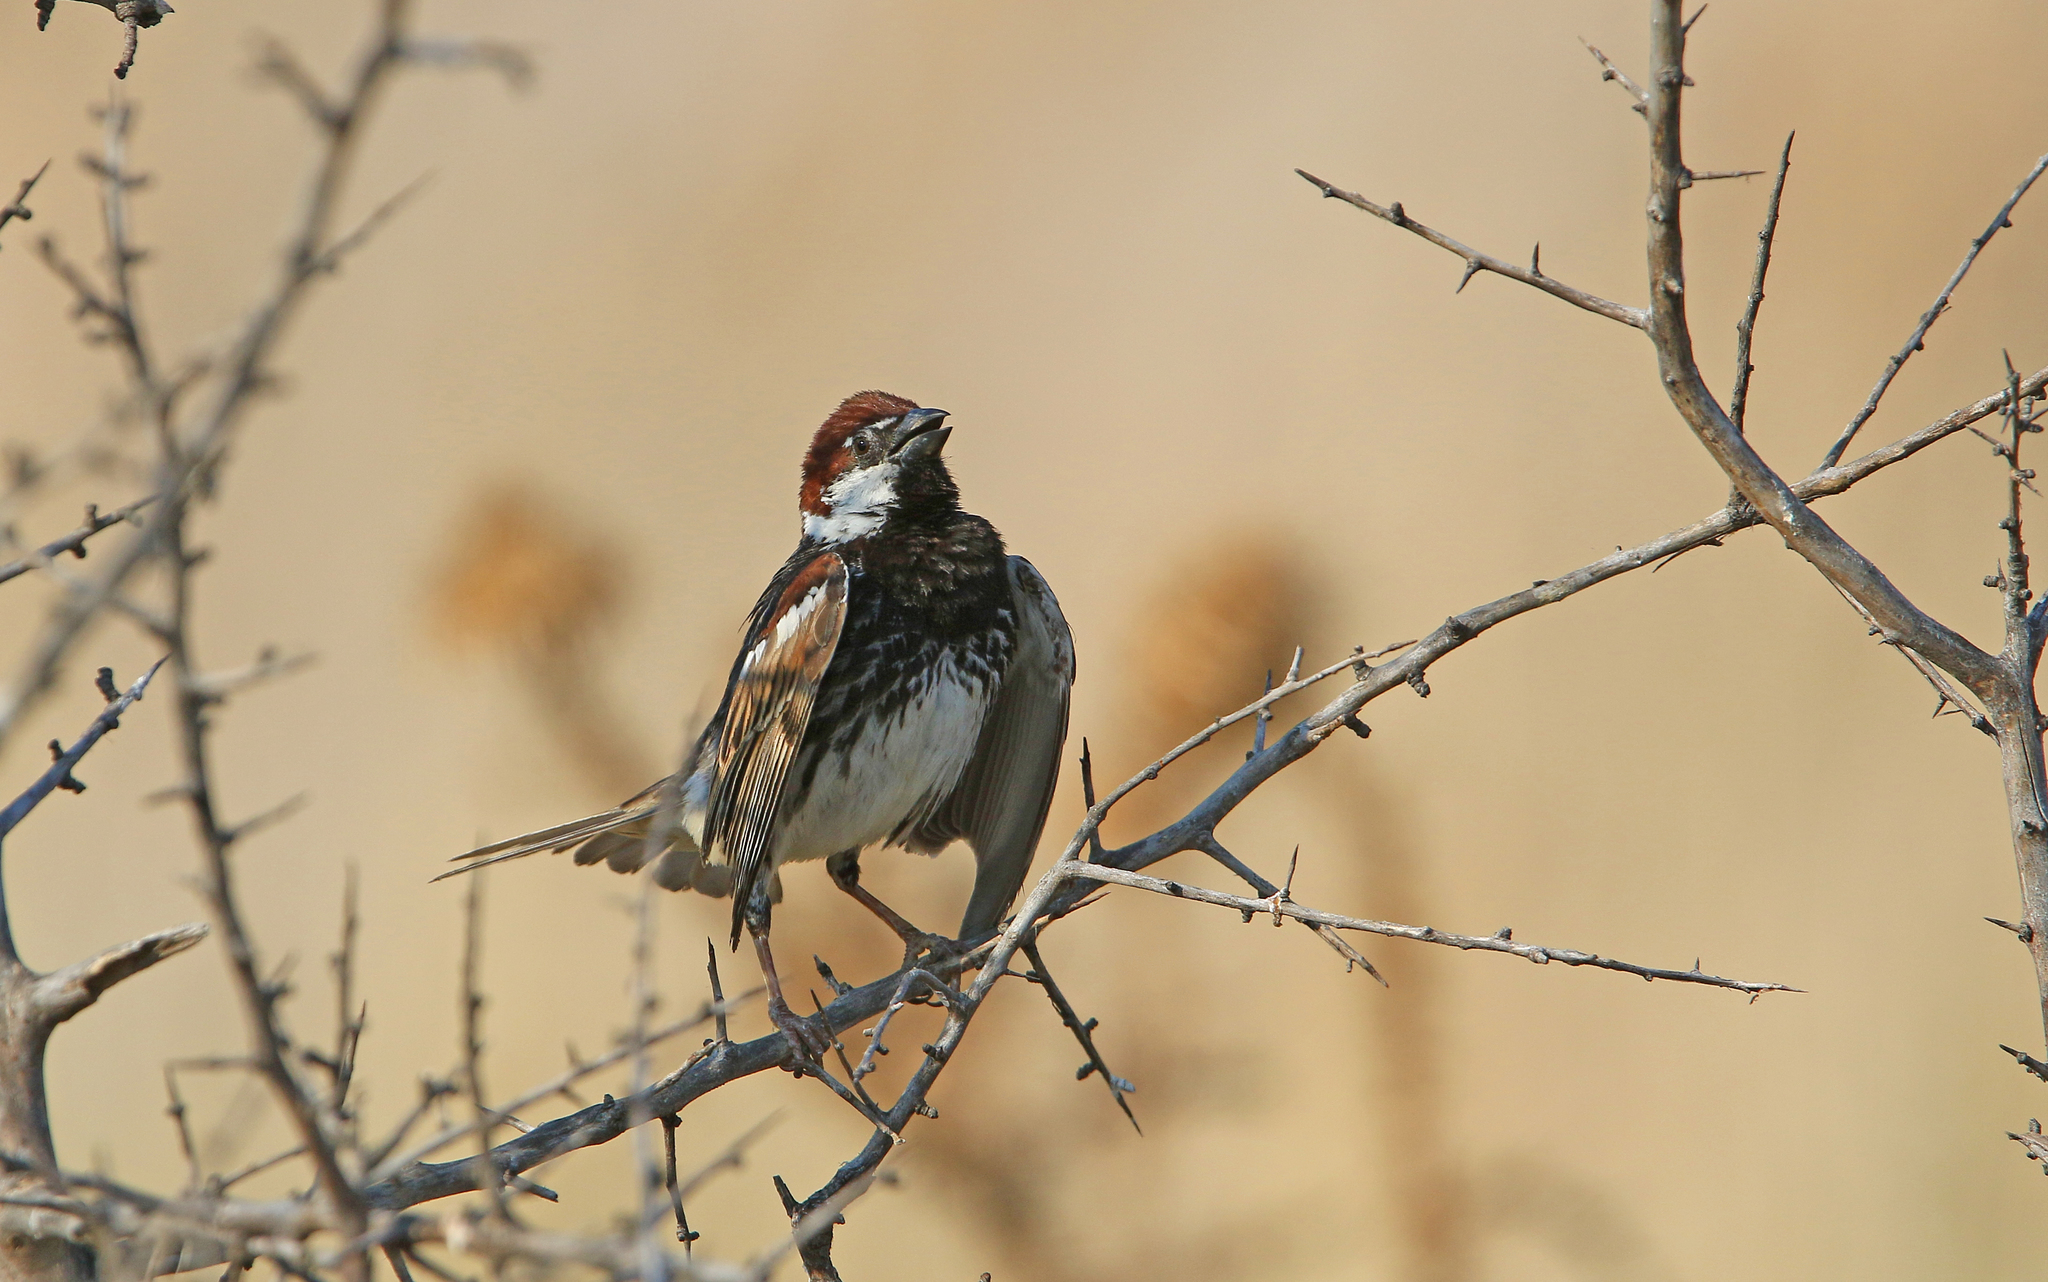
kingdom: Animalia
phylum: Chordata
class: Aves
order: Passeriformes
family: Passeridae
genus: Passer
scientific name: Passer hispaniolensis
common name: Spanish sparrow
